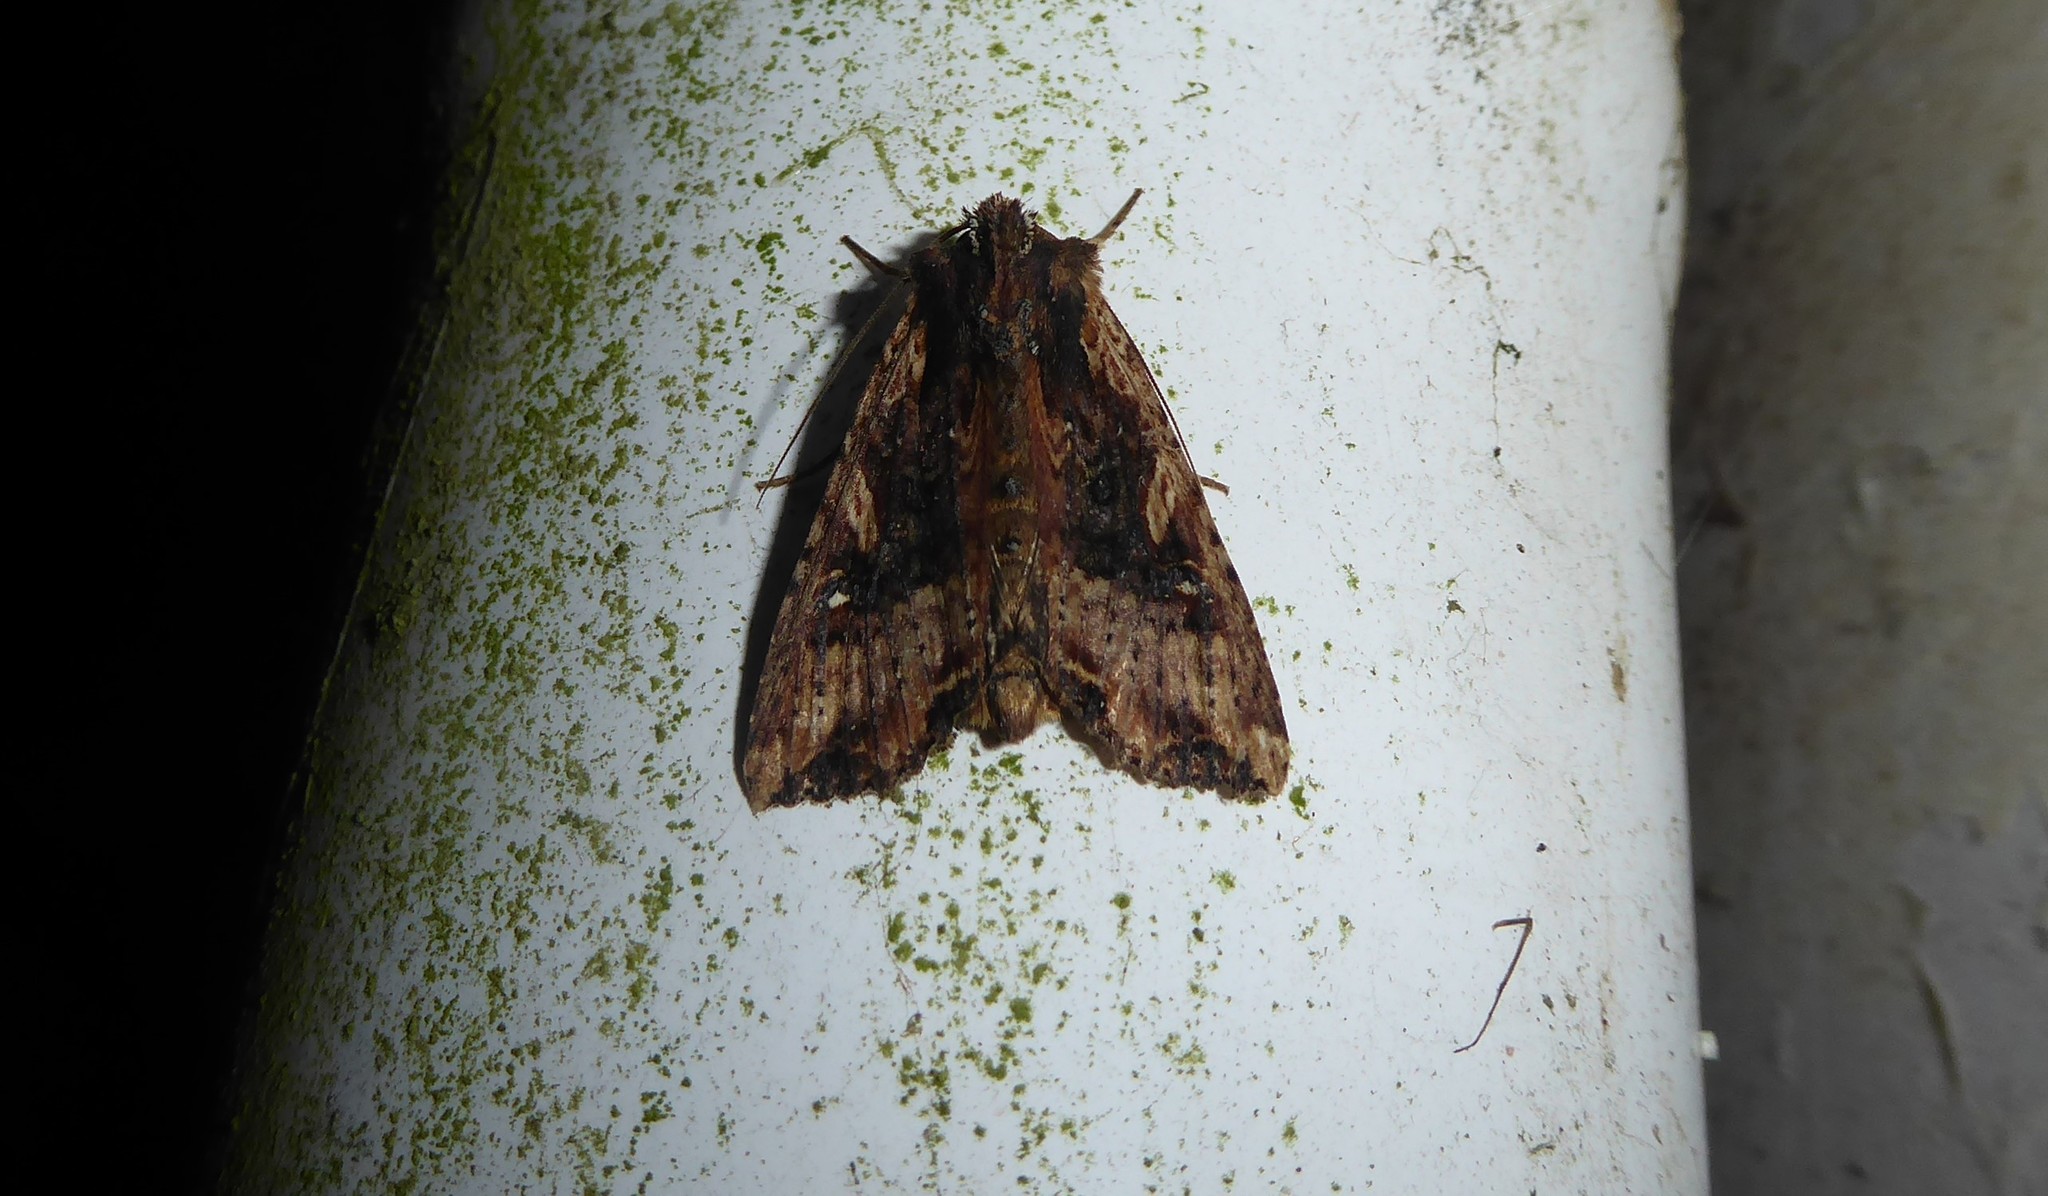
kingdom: Animalia
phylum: Arthropoda
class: Insecta
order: Lepidoptera
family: Noctuidae
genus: Meterana
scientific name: Meterana stipata
